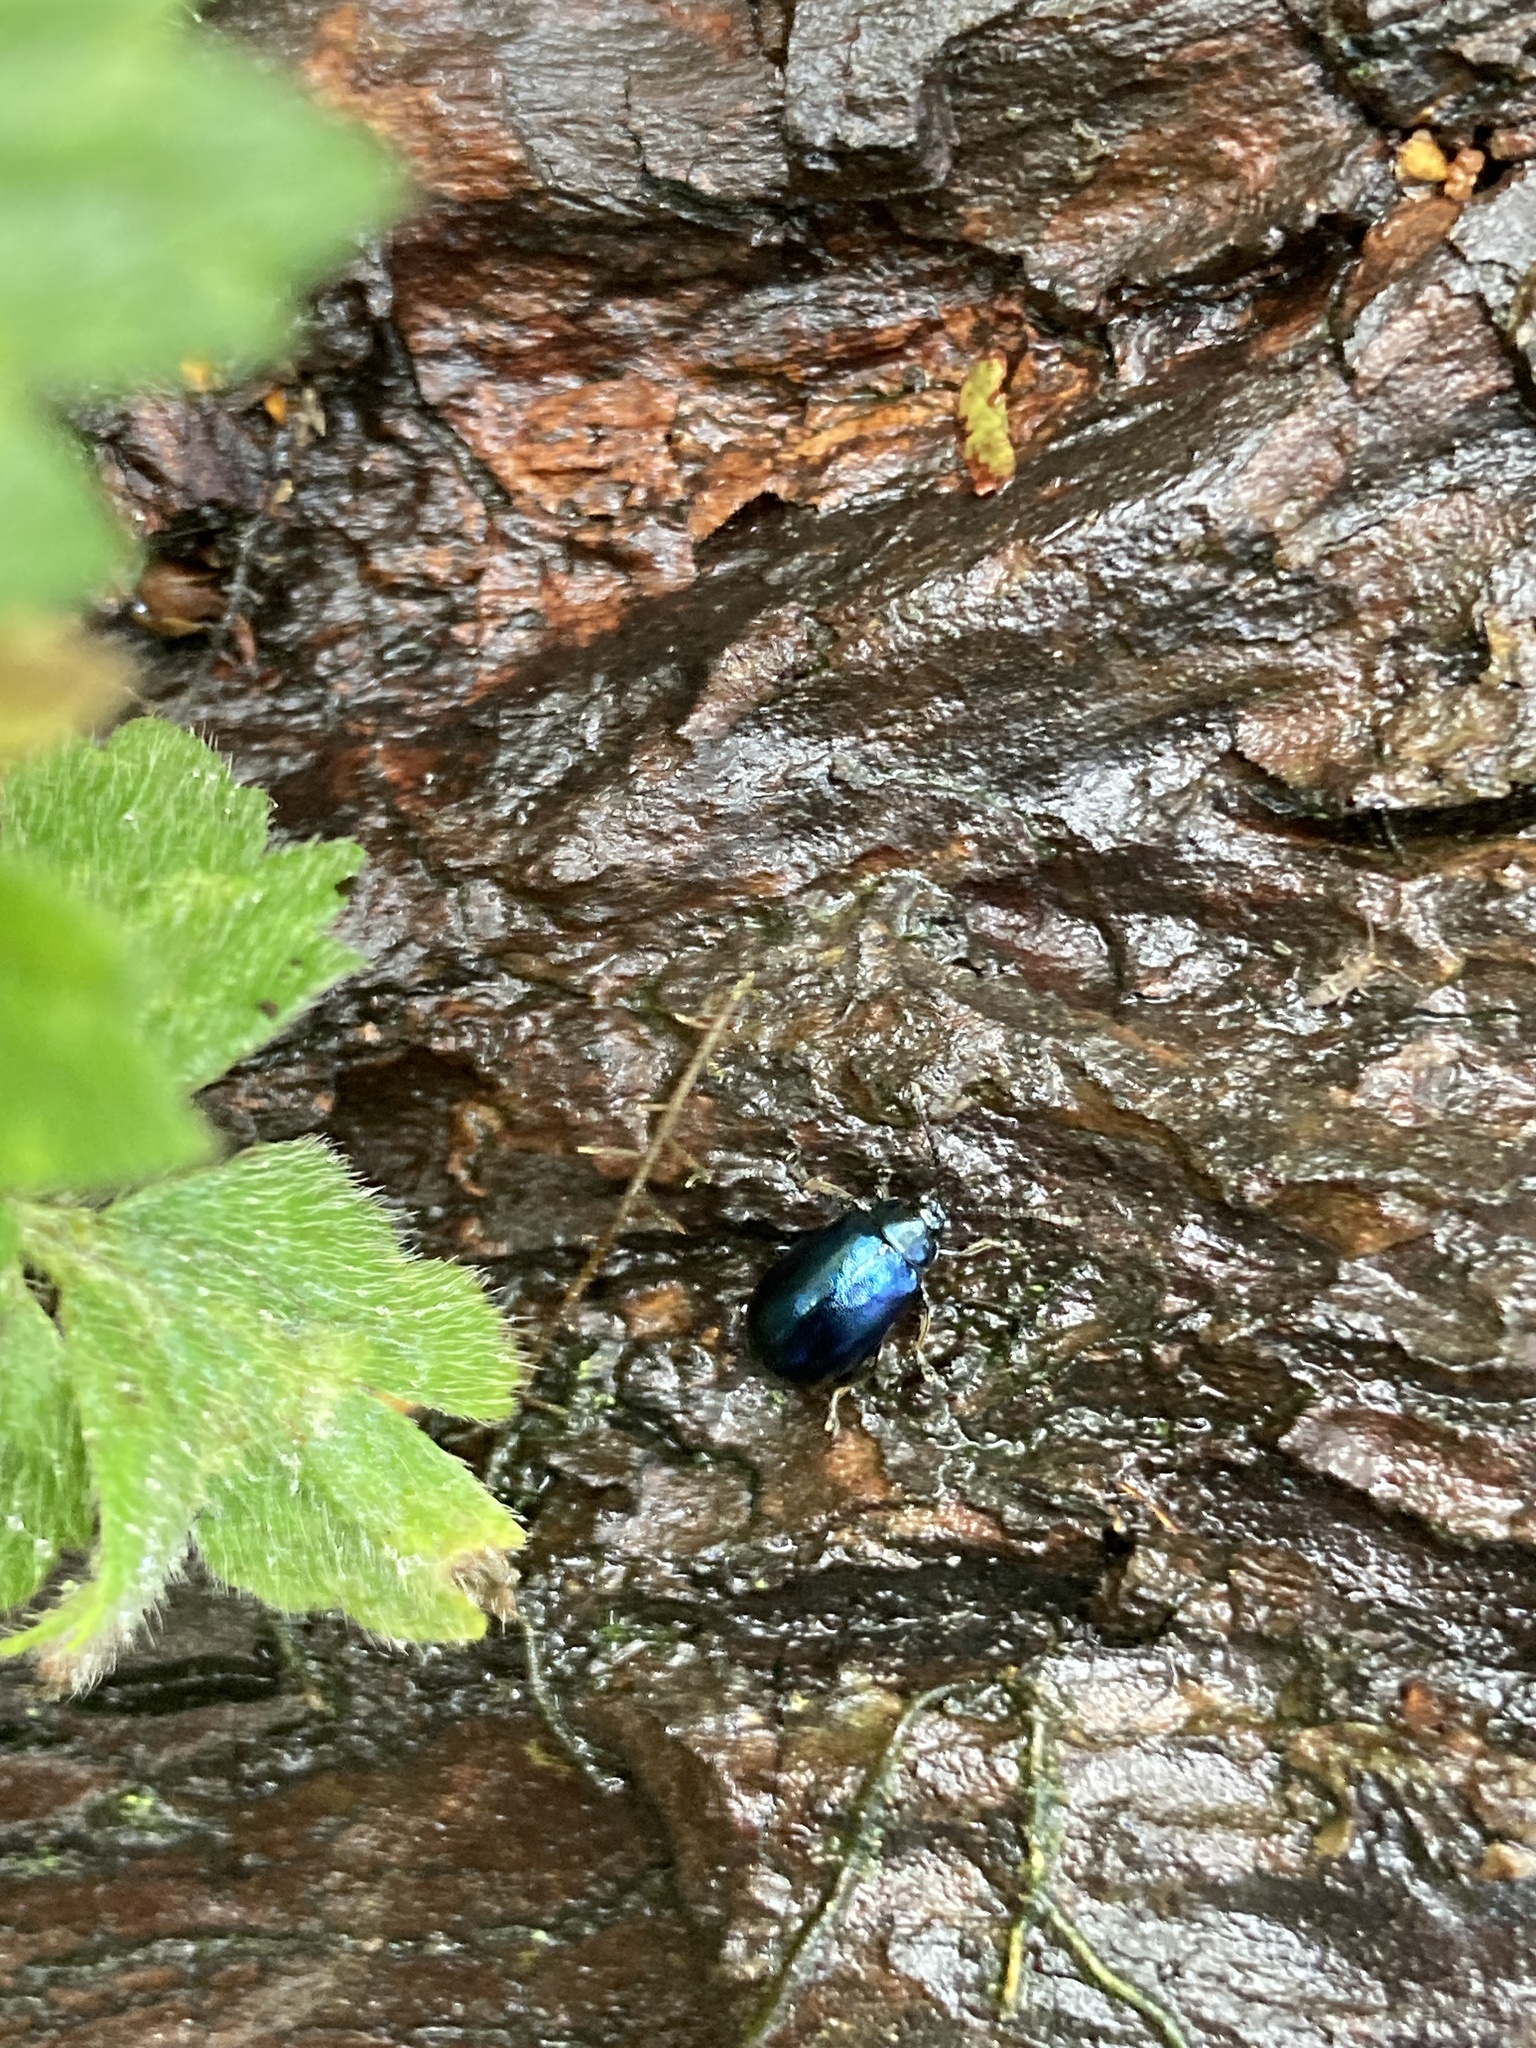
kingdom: Animalia
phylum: Arthropoda
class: Insecta
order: Coleoptera
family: Chrysomelidae
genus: Agelastica
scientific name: Agelastica alni
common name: Alder leaf beetle
